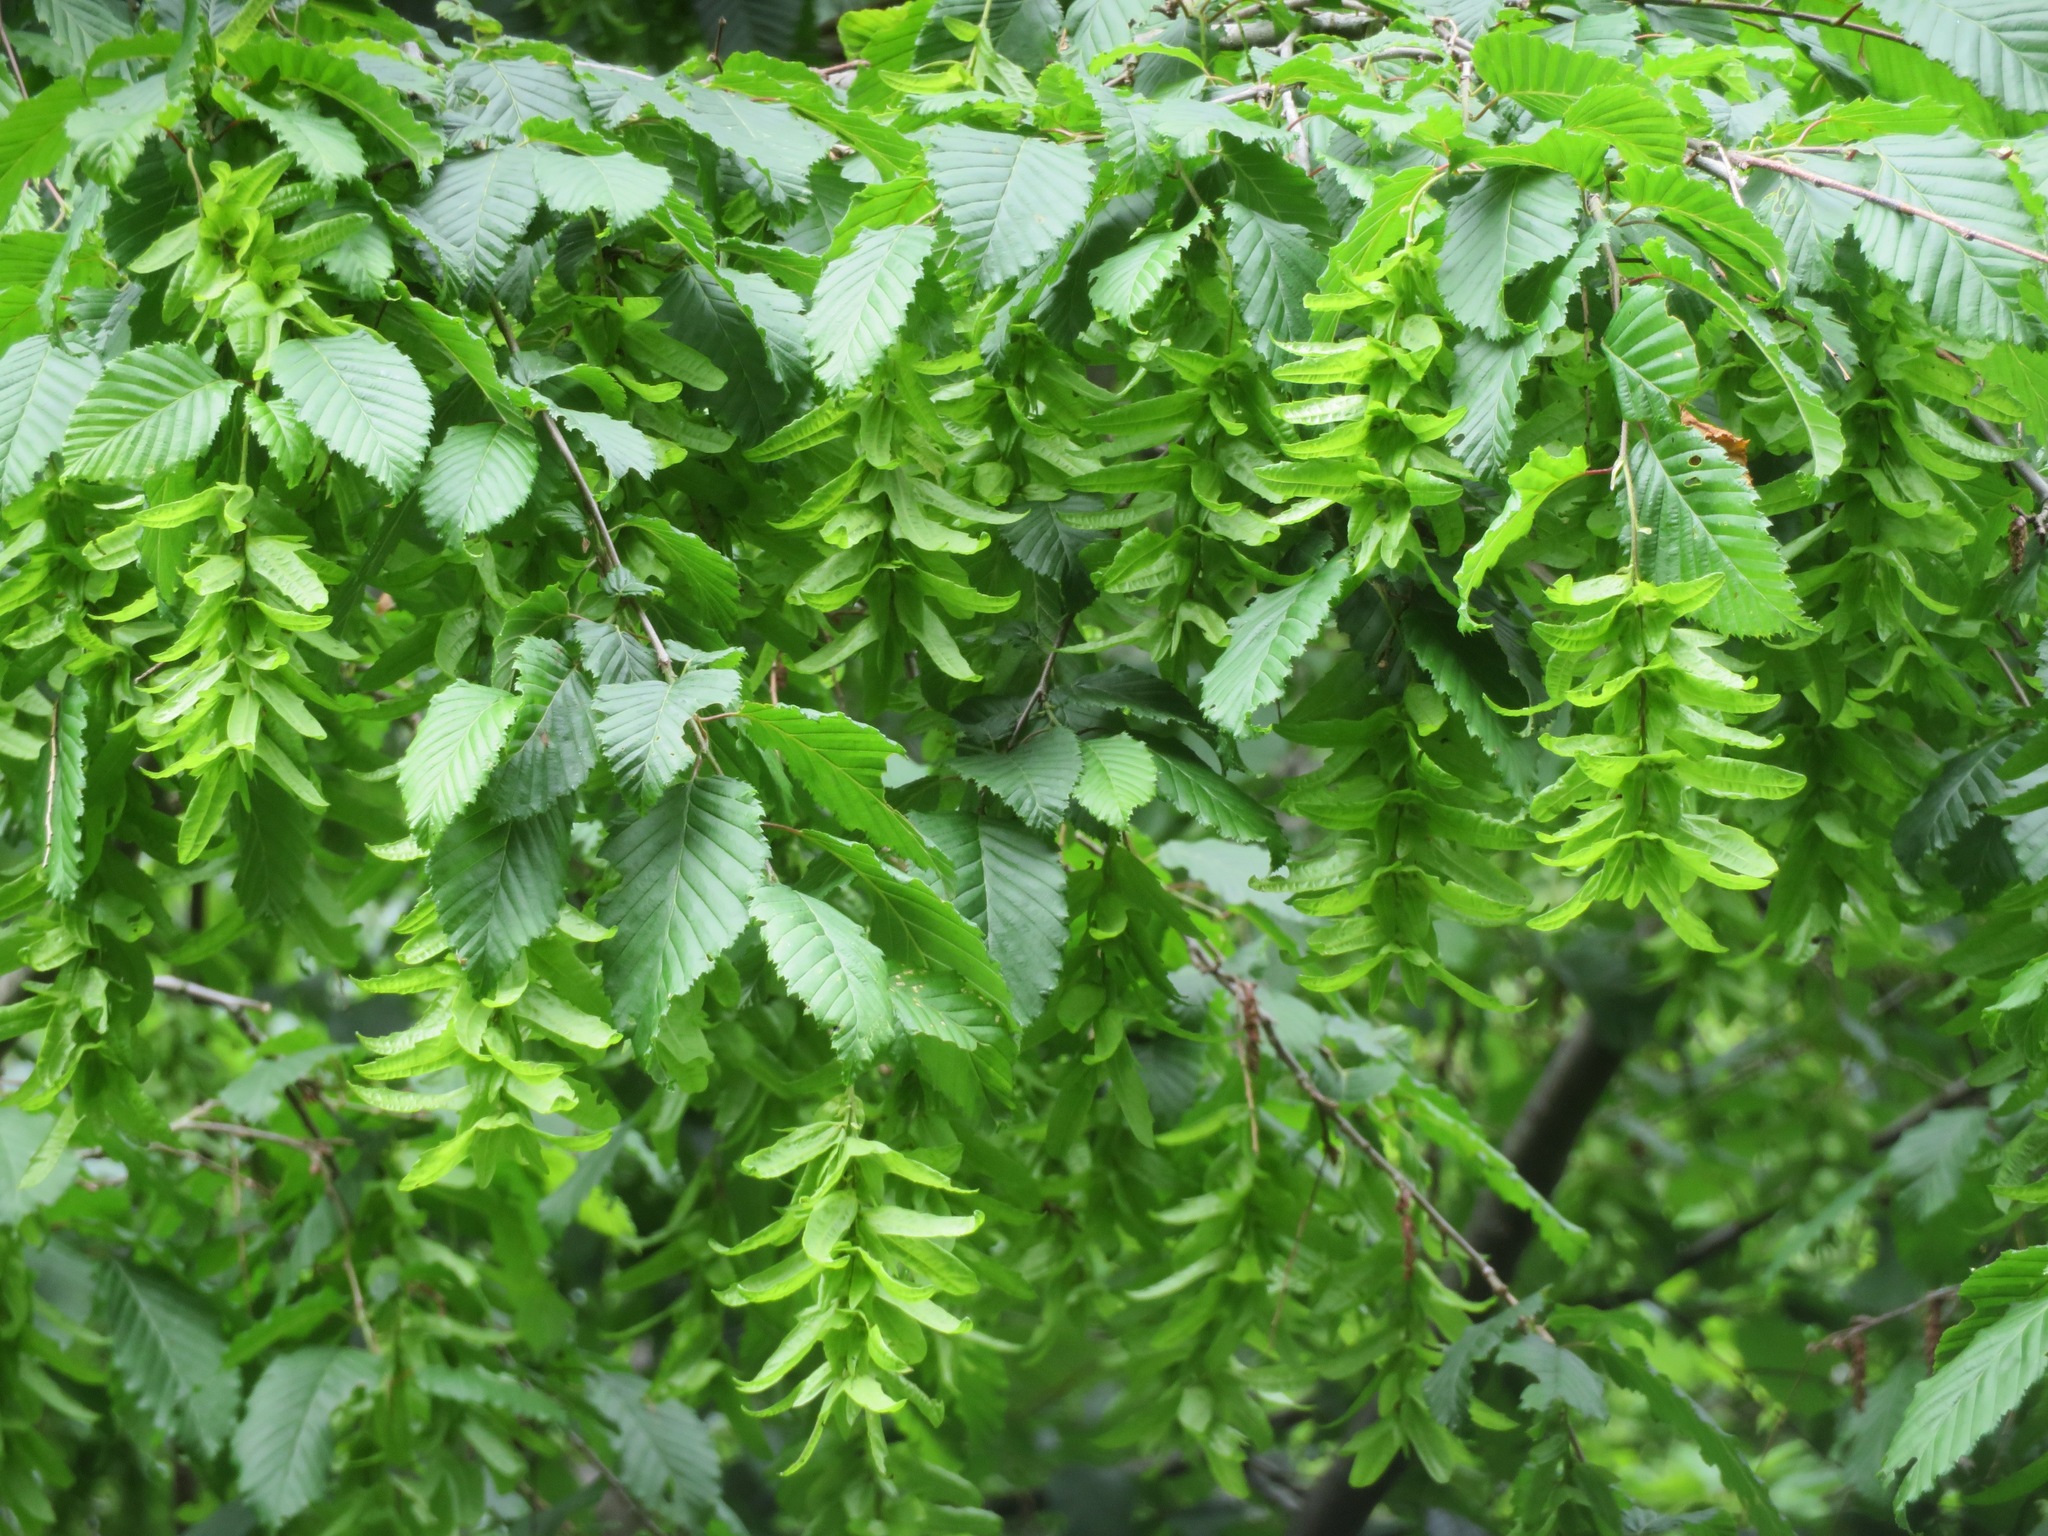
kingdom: Plantae
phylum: Tracheophyta
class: Magnoliopsida
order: Fagales
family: Betulaceae
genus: Carpinus
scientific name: Carpinus betulus
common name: Hornbeam
